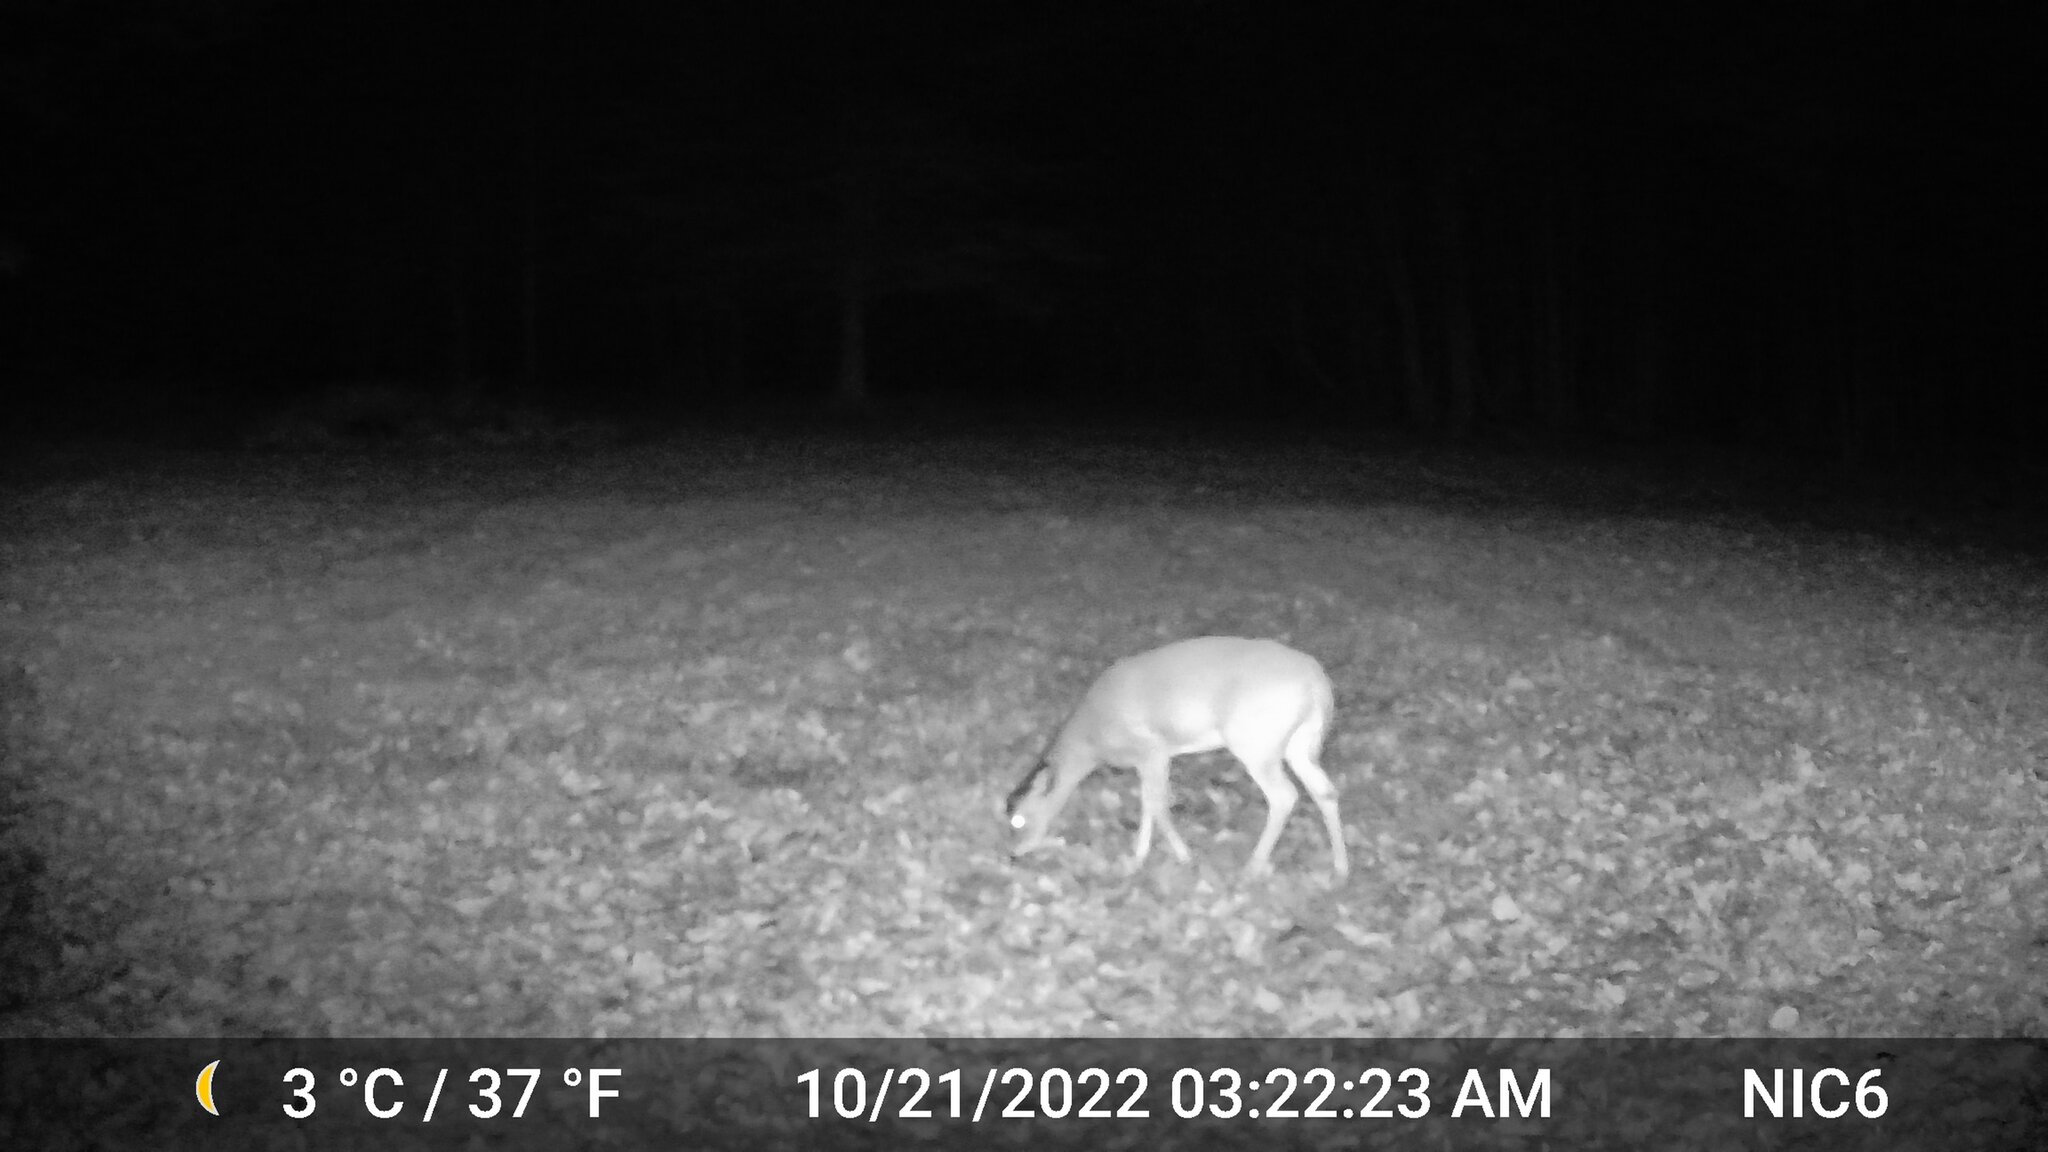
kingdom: Animalia
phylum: Chordata
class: Mammalia
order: Artiodactyla
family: Cervidae
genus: Odocoileus
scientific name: Odocoileus virginianus
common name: White-tailed deer
